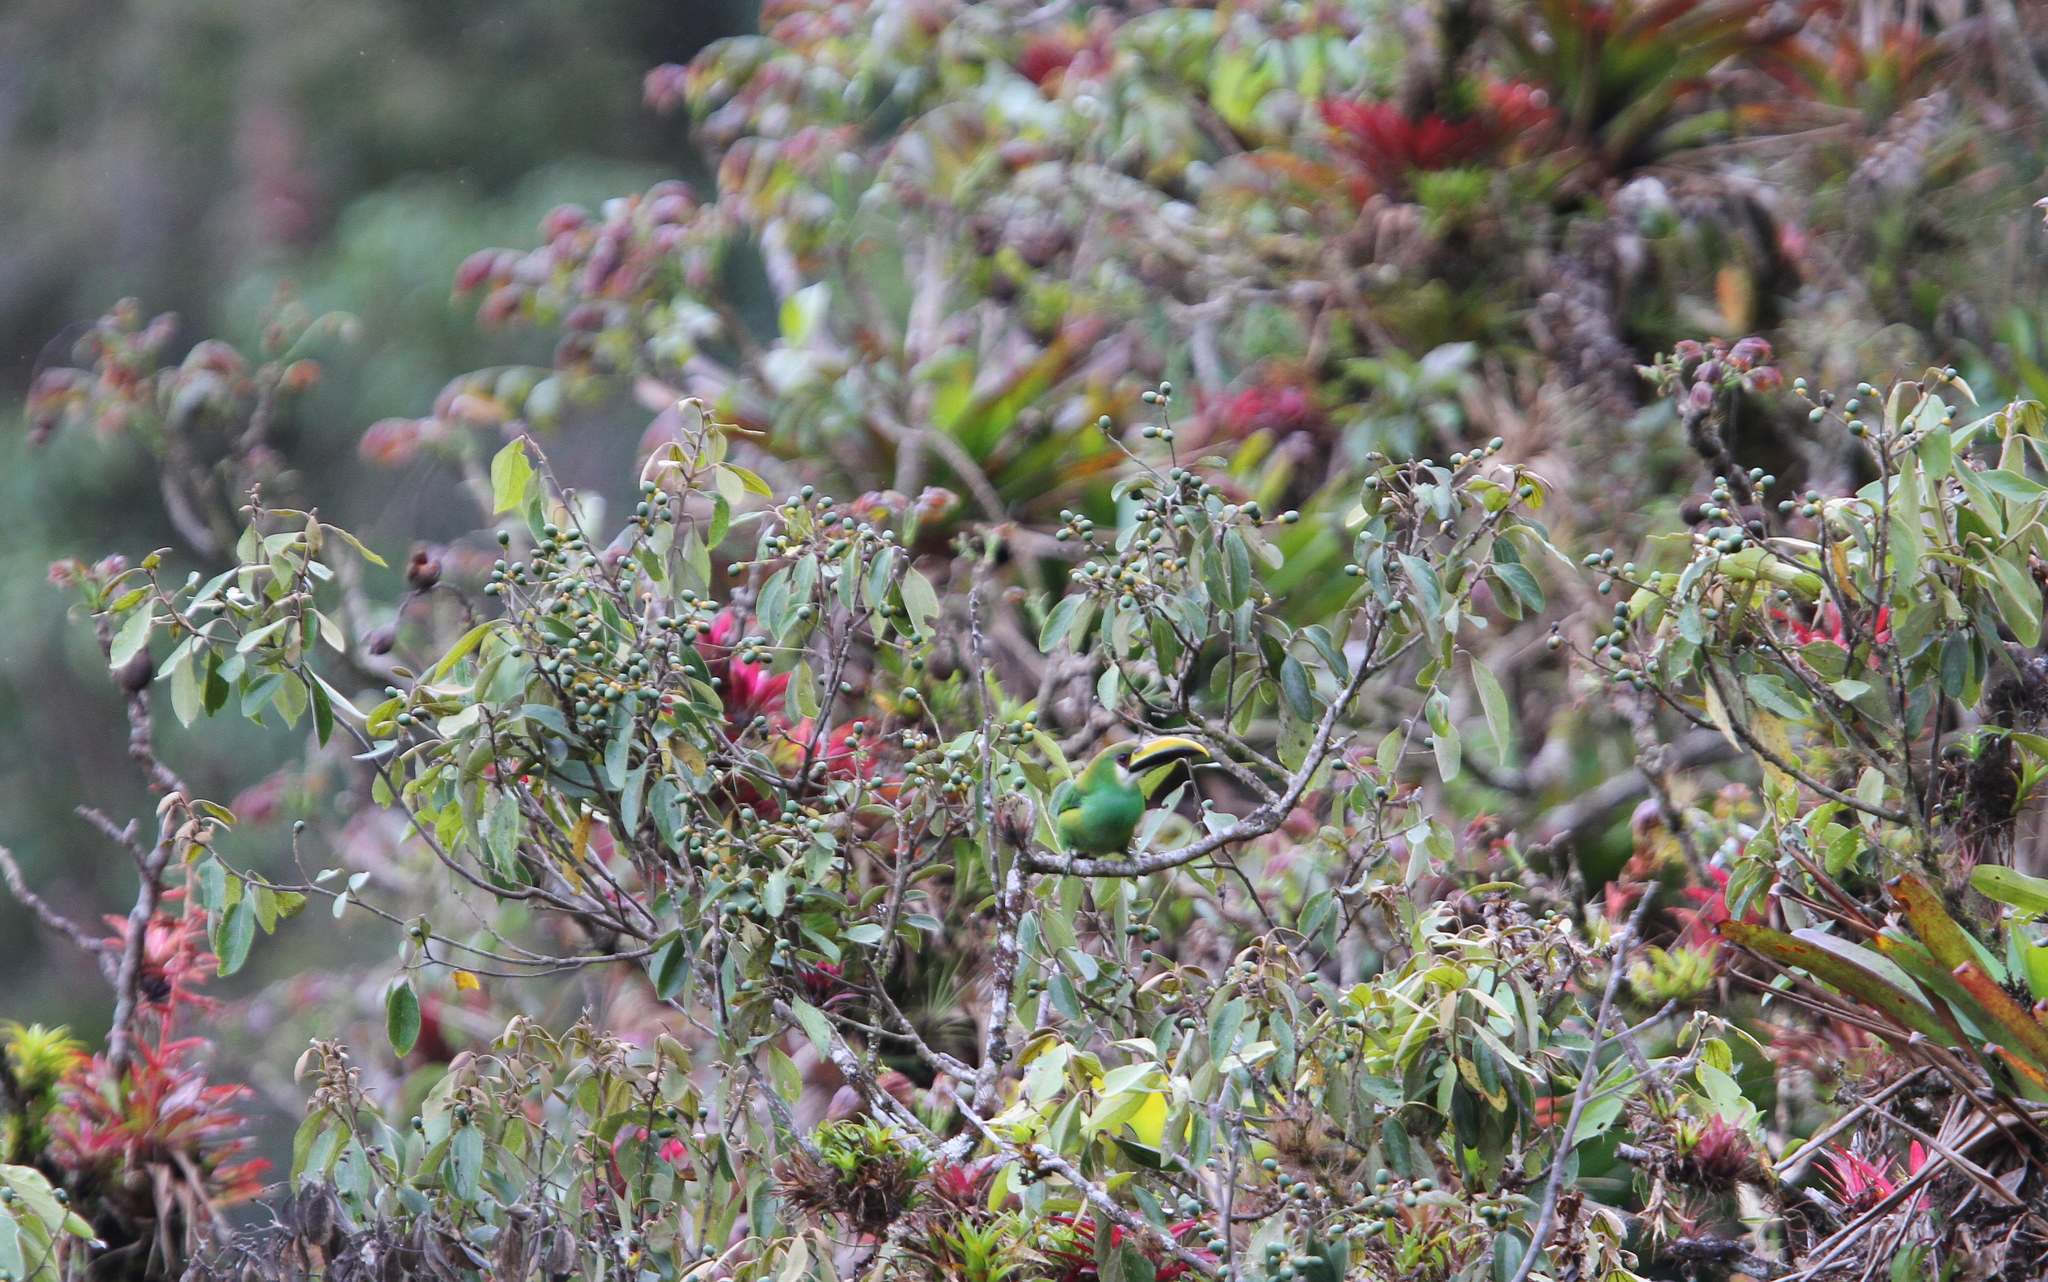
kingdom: Animalia
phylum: Chordata
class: Aves
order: Piciformes
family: Ramphastidae
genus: Aulacorhynchus
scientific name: Aulacorhynchus prasinus
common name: Emerald toucanet
